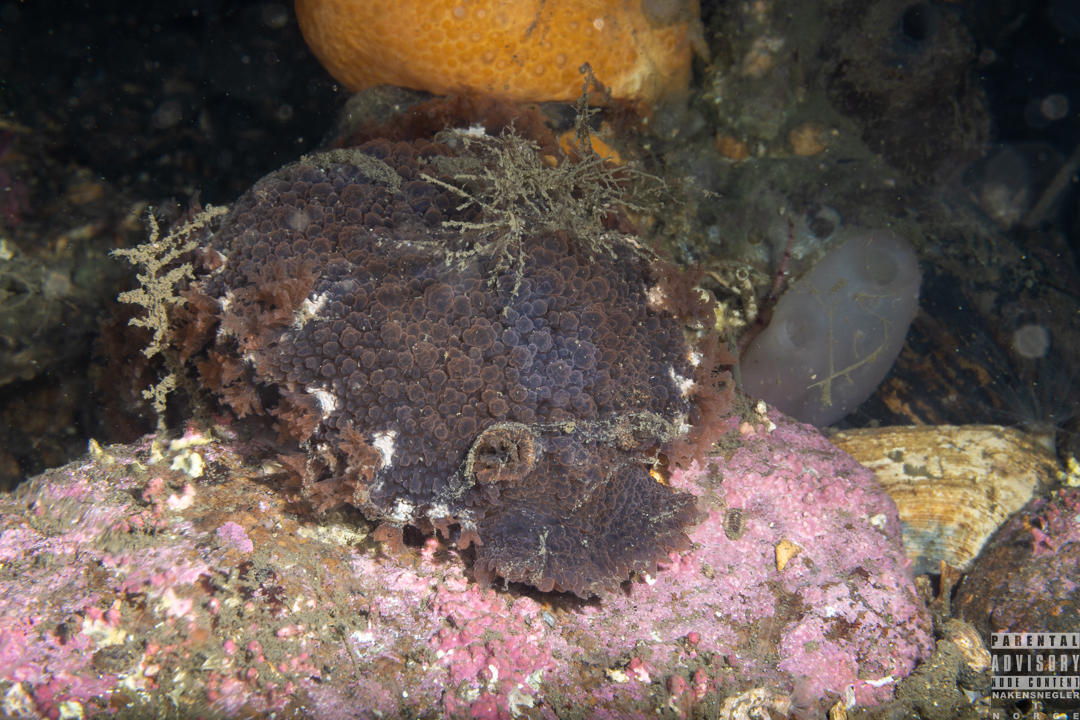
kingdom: Animalia
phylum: Mollusca
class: Gastropoda
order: Nudibranchia
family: Tritoniidae
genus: Tritonia
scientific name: Tritonia hombergii
